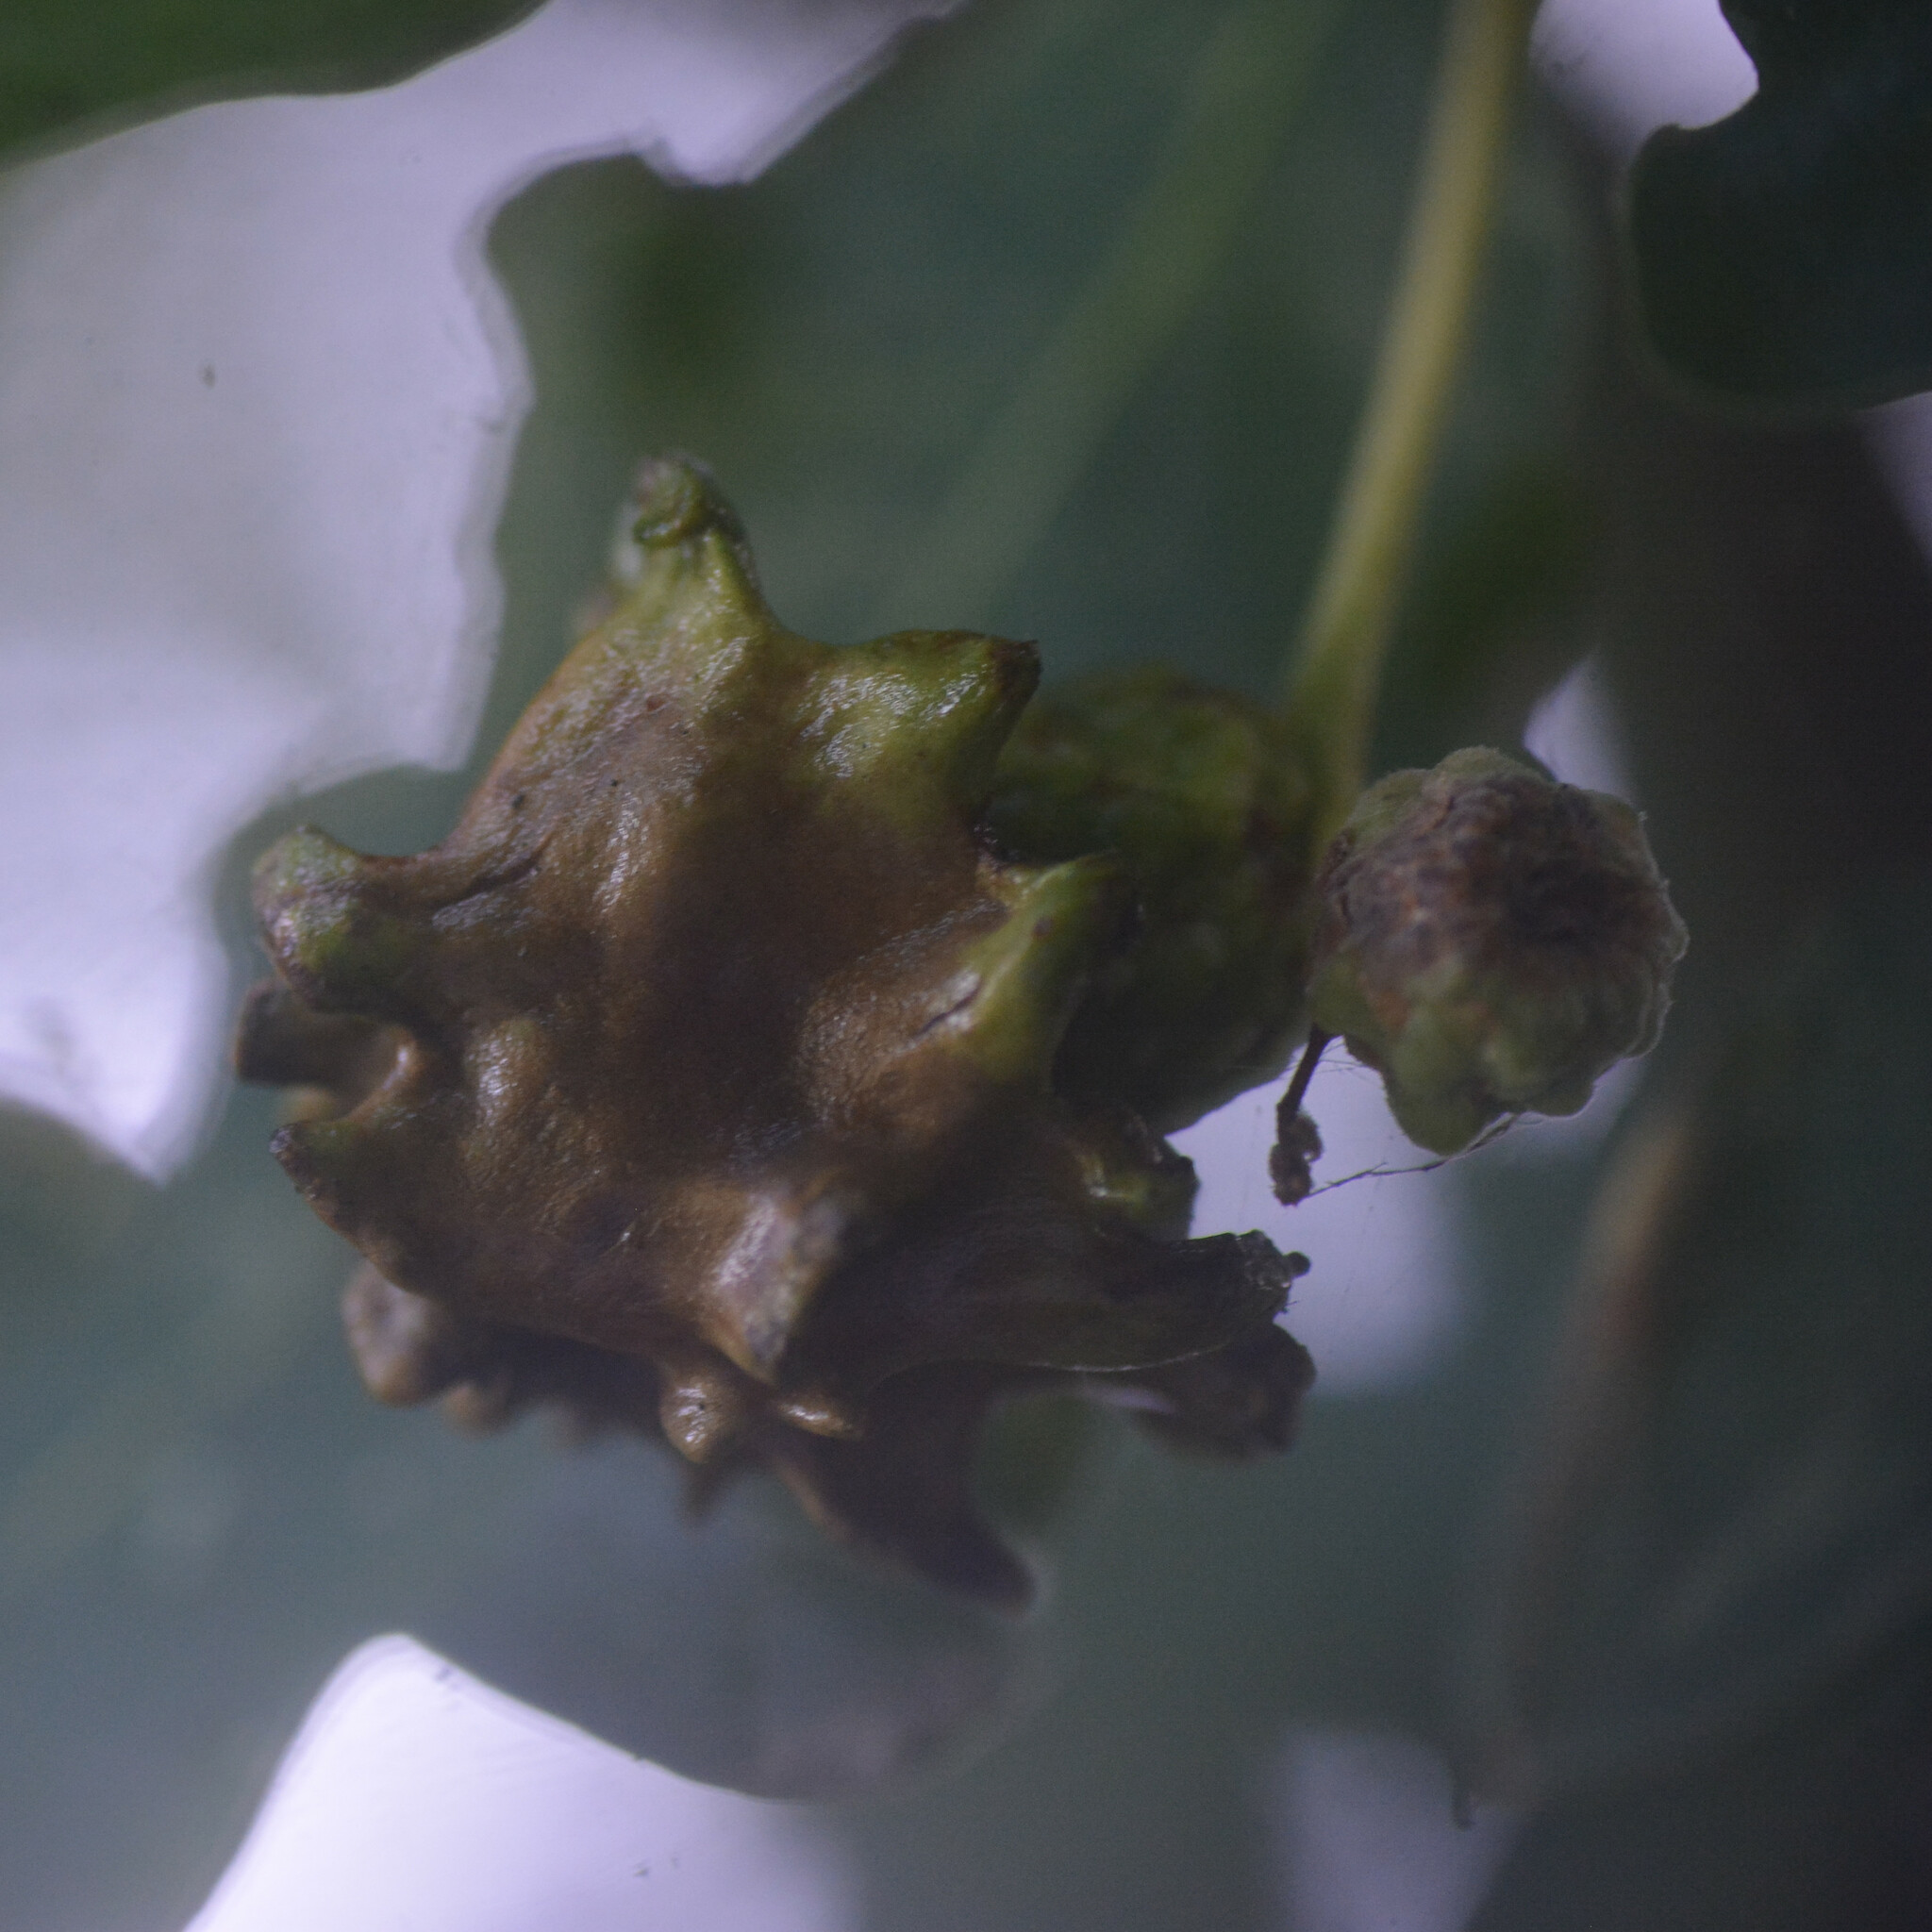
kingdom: Animalia
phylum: Arthropoda
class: Insecta
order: Hymenoptera
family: Cynipidae
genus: Andricus
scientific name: Andricus quercuscalicis
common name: Knopper gall
